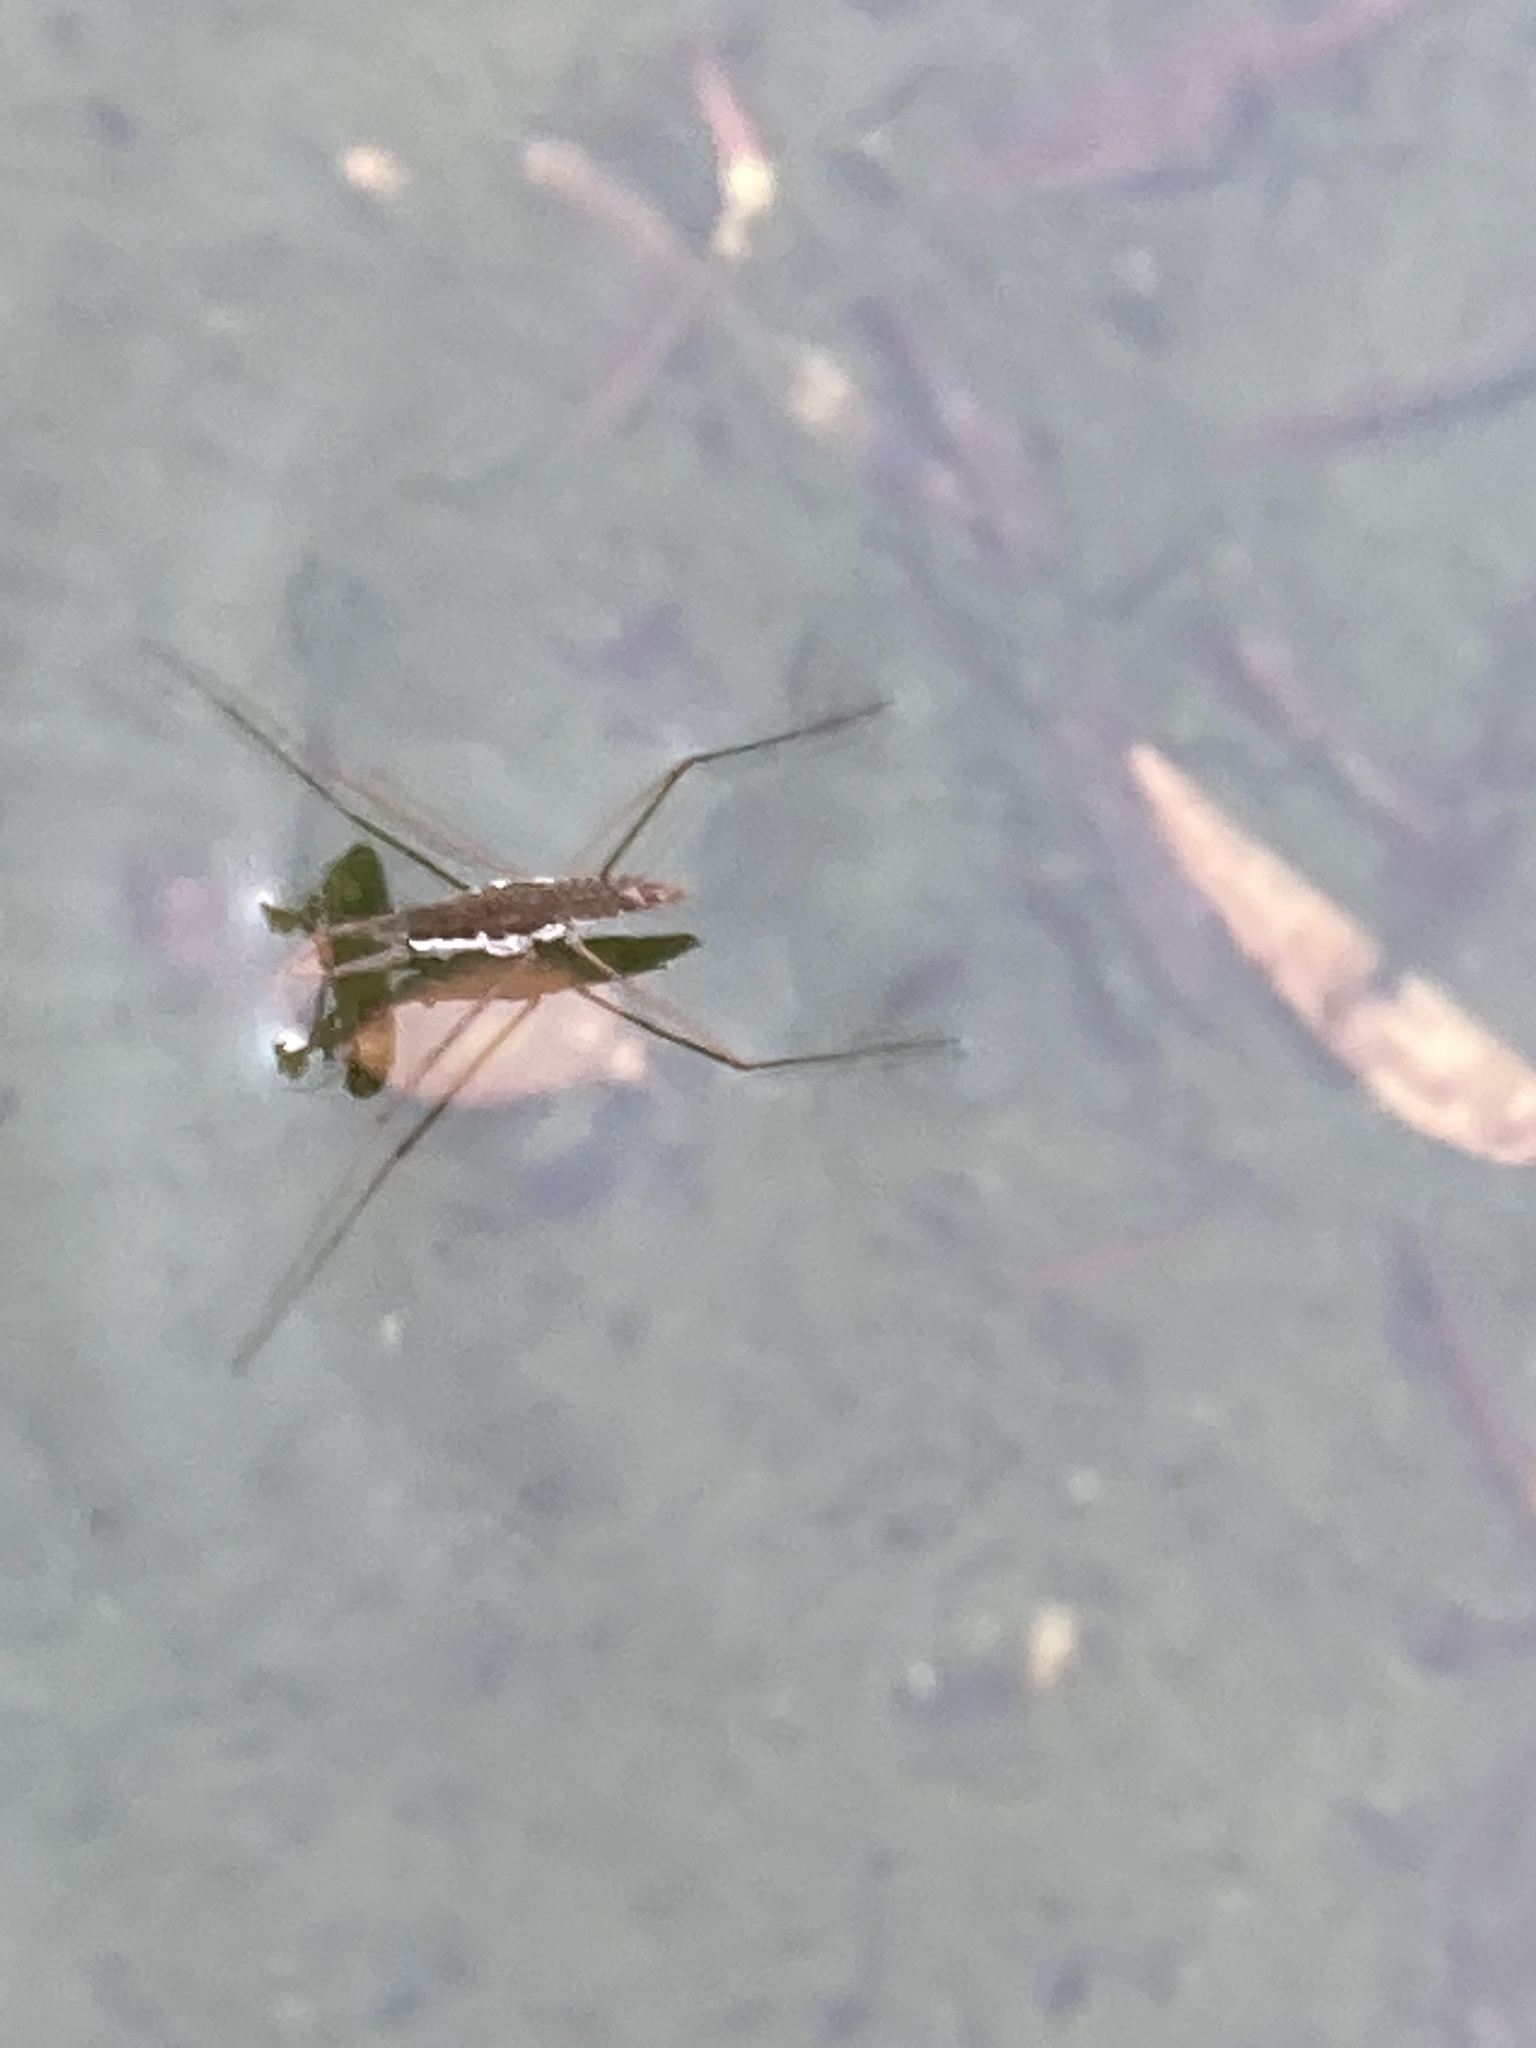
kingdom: Animalia
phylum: Arthropoda
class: Insecta
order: Hemiptera
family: Gerridae
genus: Aquarius
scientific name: Aquarius remigis
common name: Common water strider
